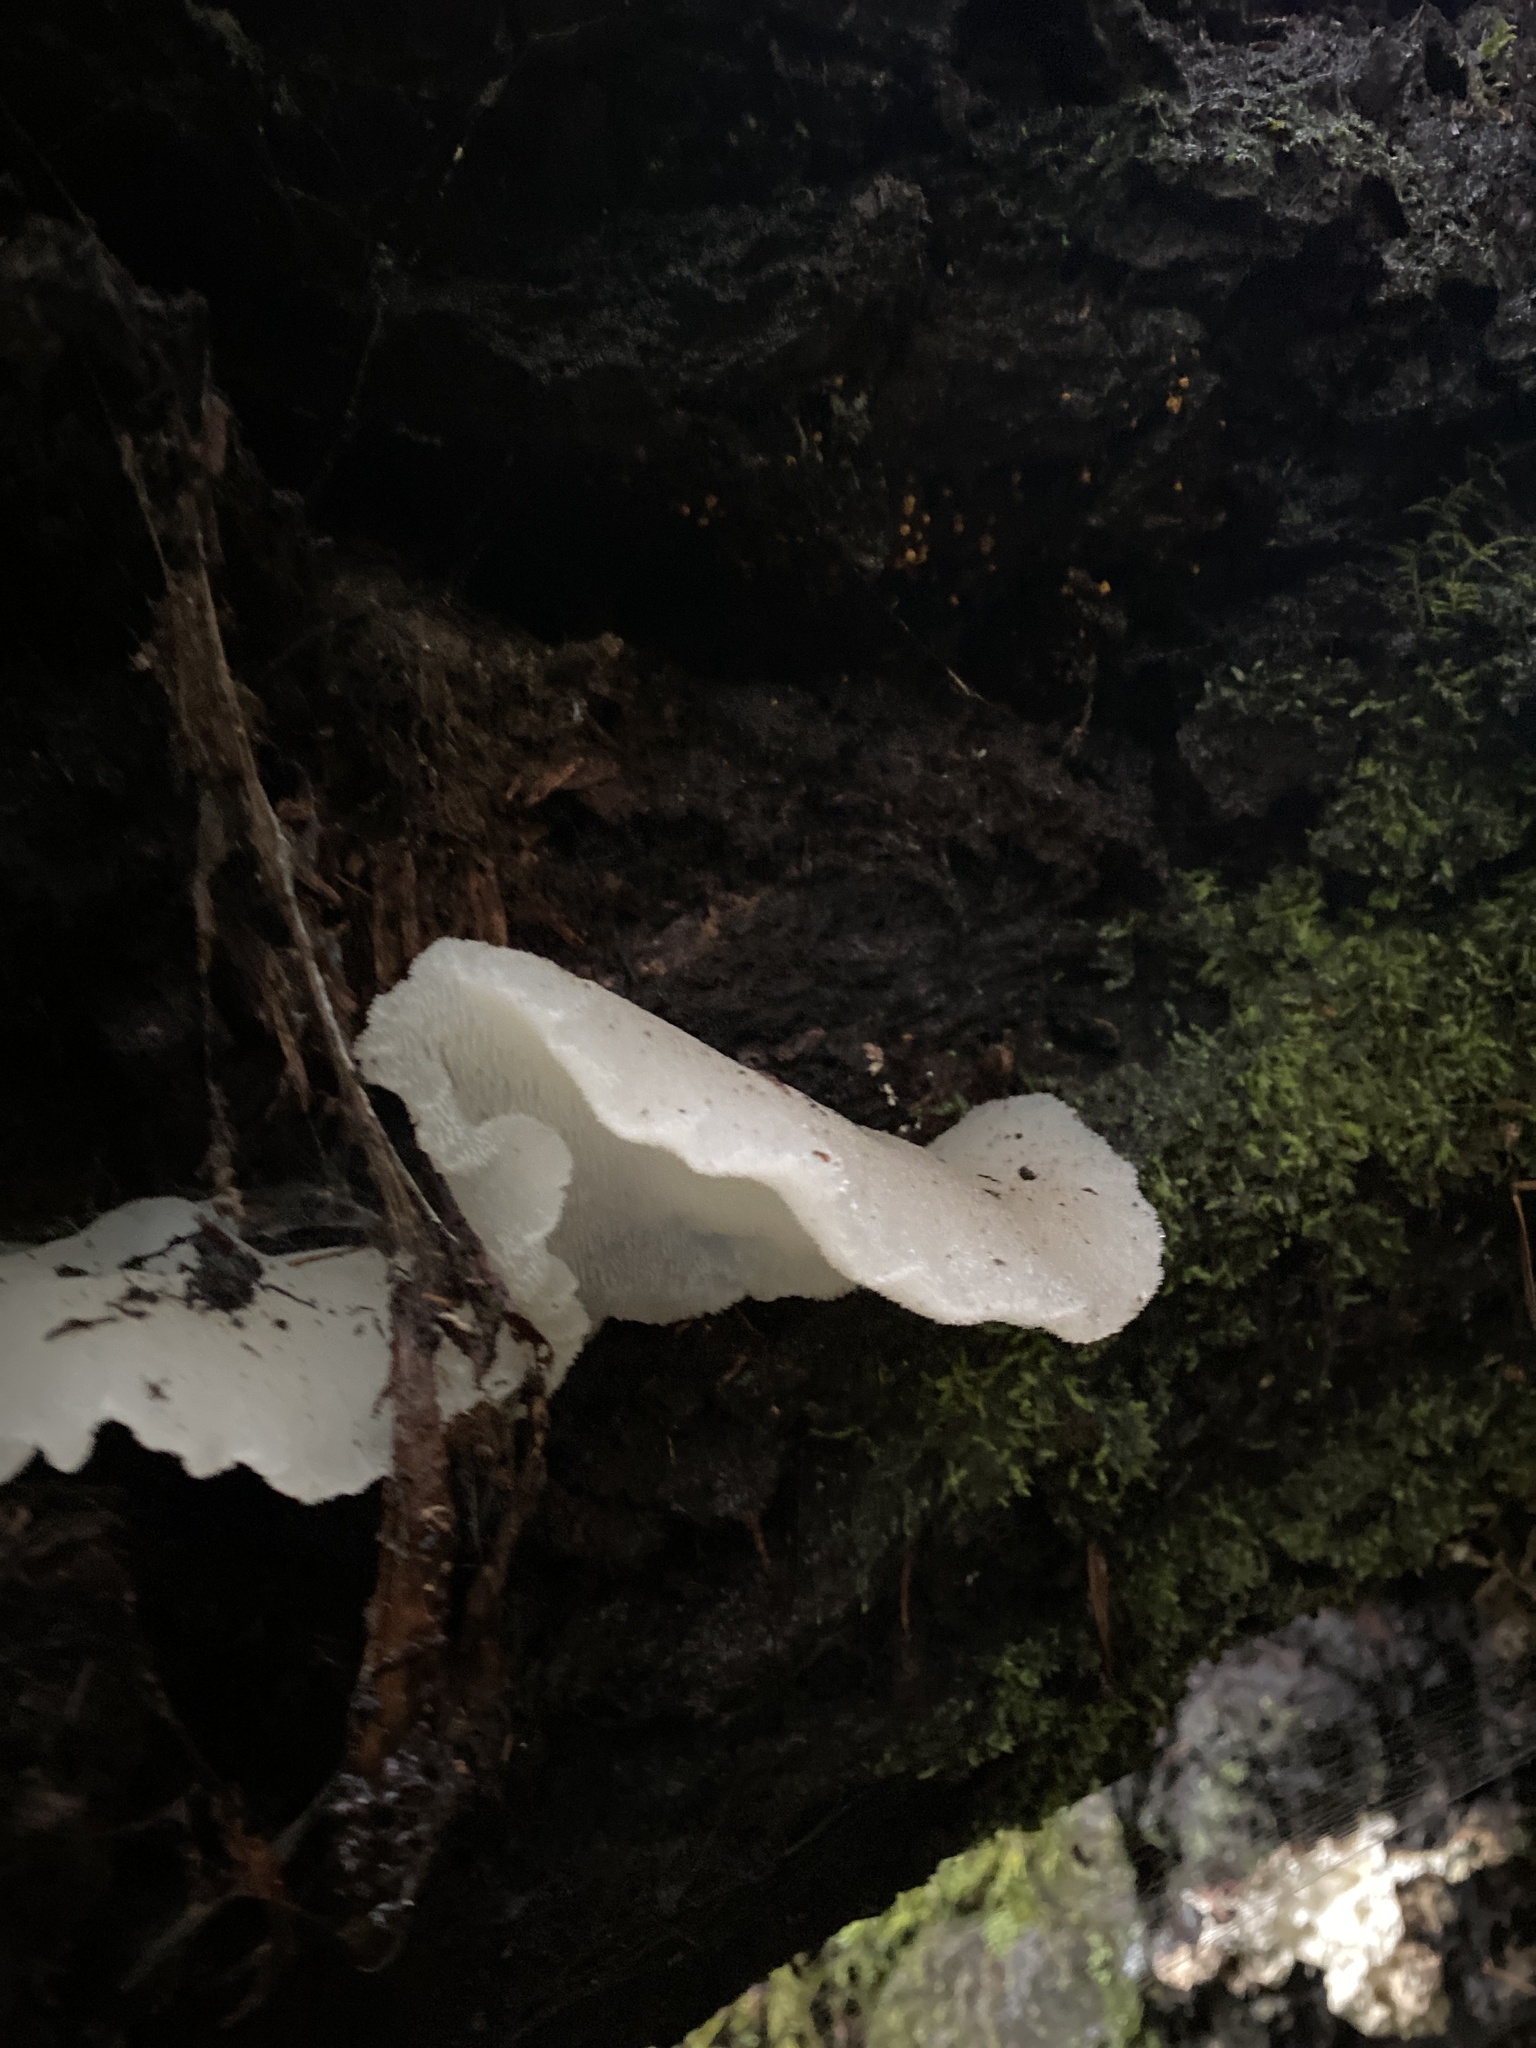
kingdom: Fungi
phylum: Basidiomycota
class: Agaricomycetes
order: Auriculariales
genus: Pseudohydnum
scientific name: Pseudohydnum gelatinosum
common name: Jelly tongue
